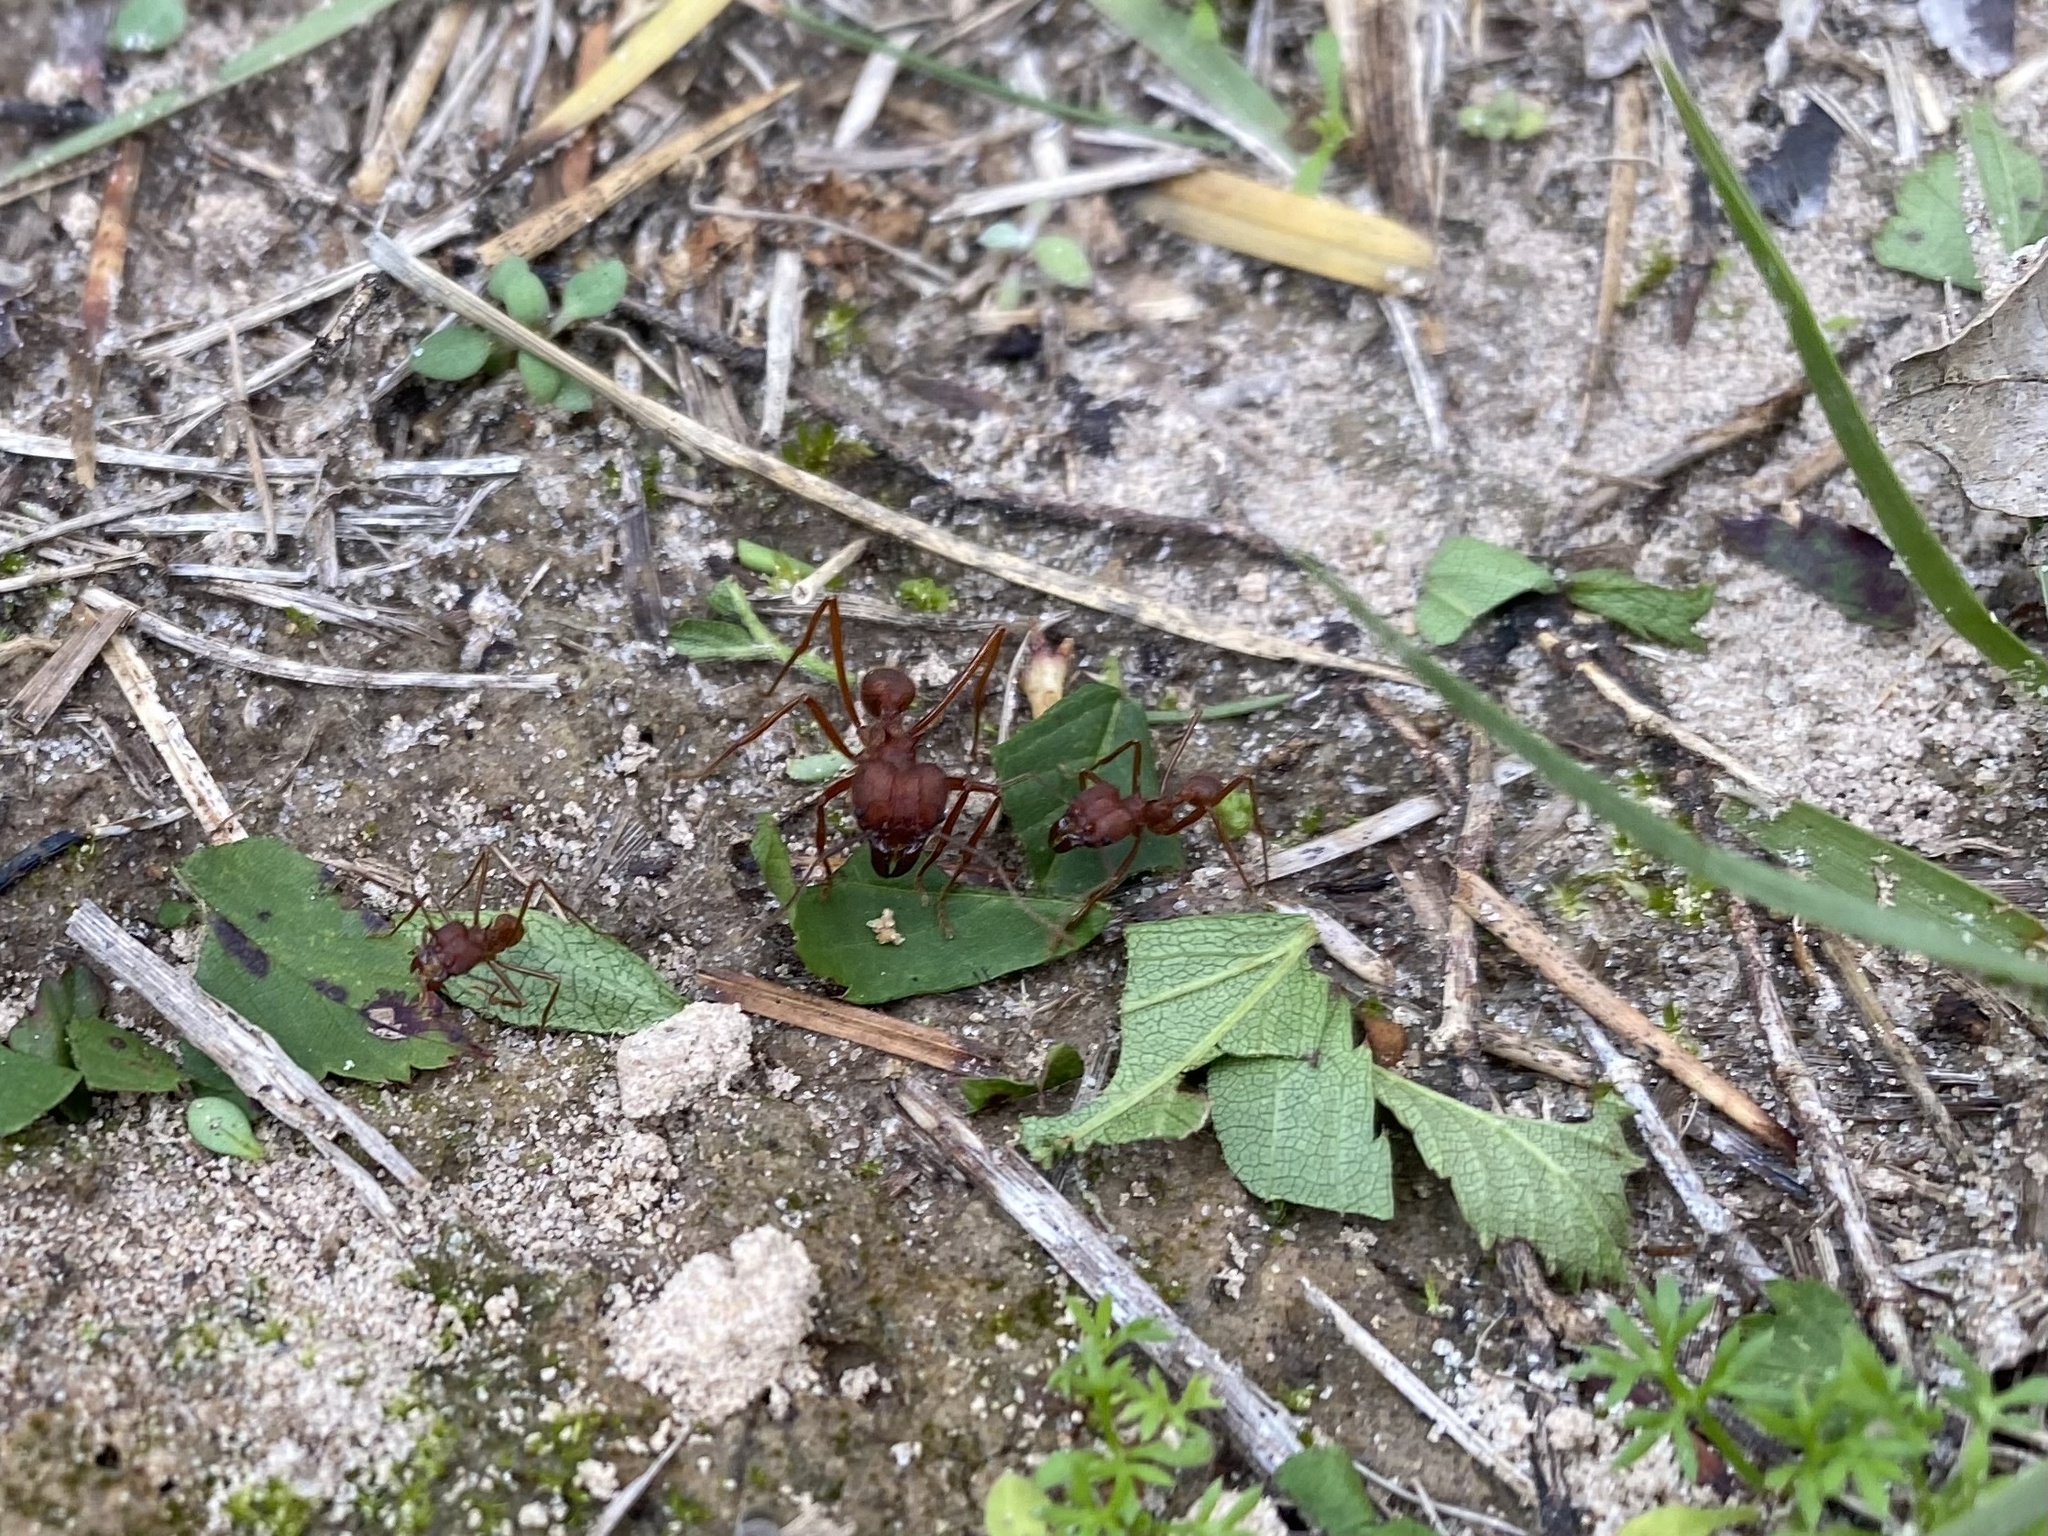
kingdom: Animalia
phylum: Arthropoda
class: Insecta
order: Hymenoptera
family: Formicidae
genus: Atta
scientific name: Atta texana
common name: Texas leafcutting ant
